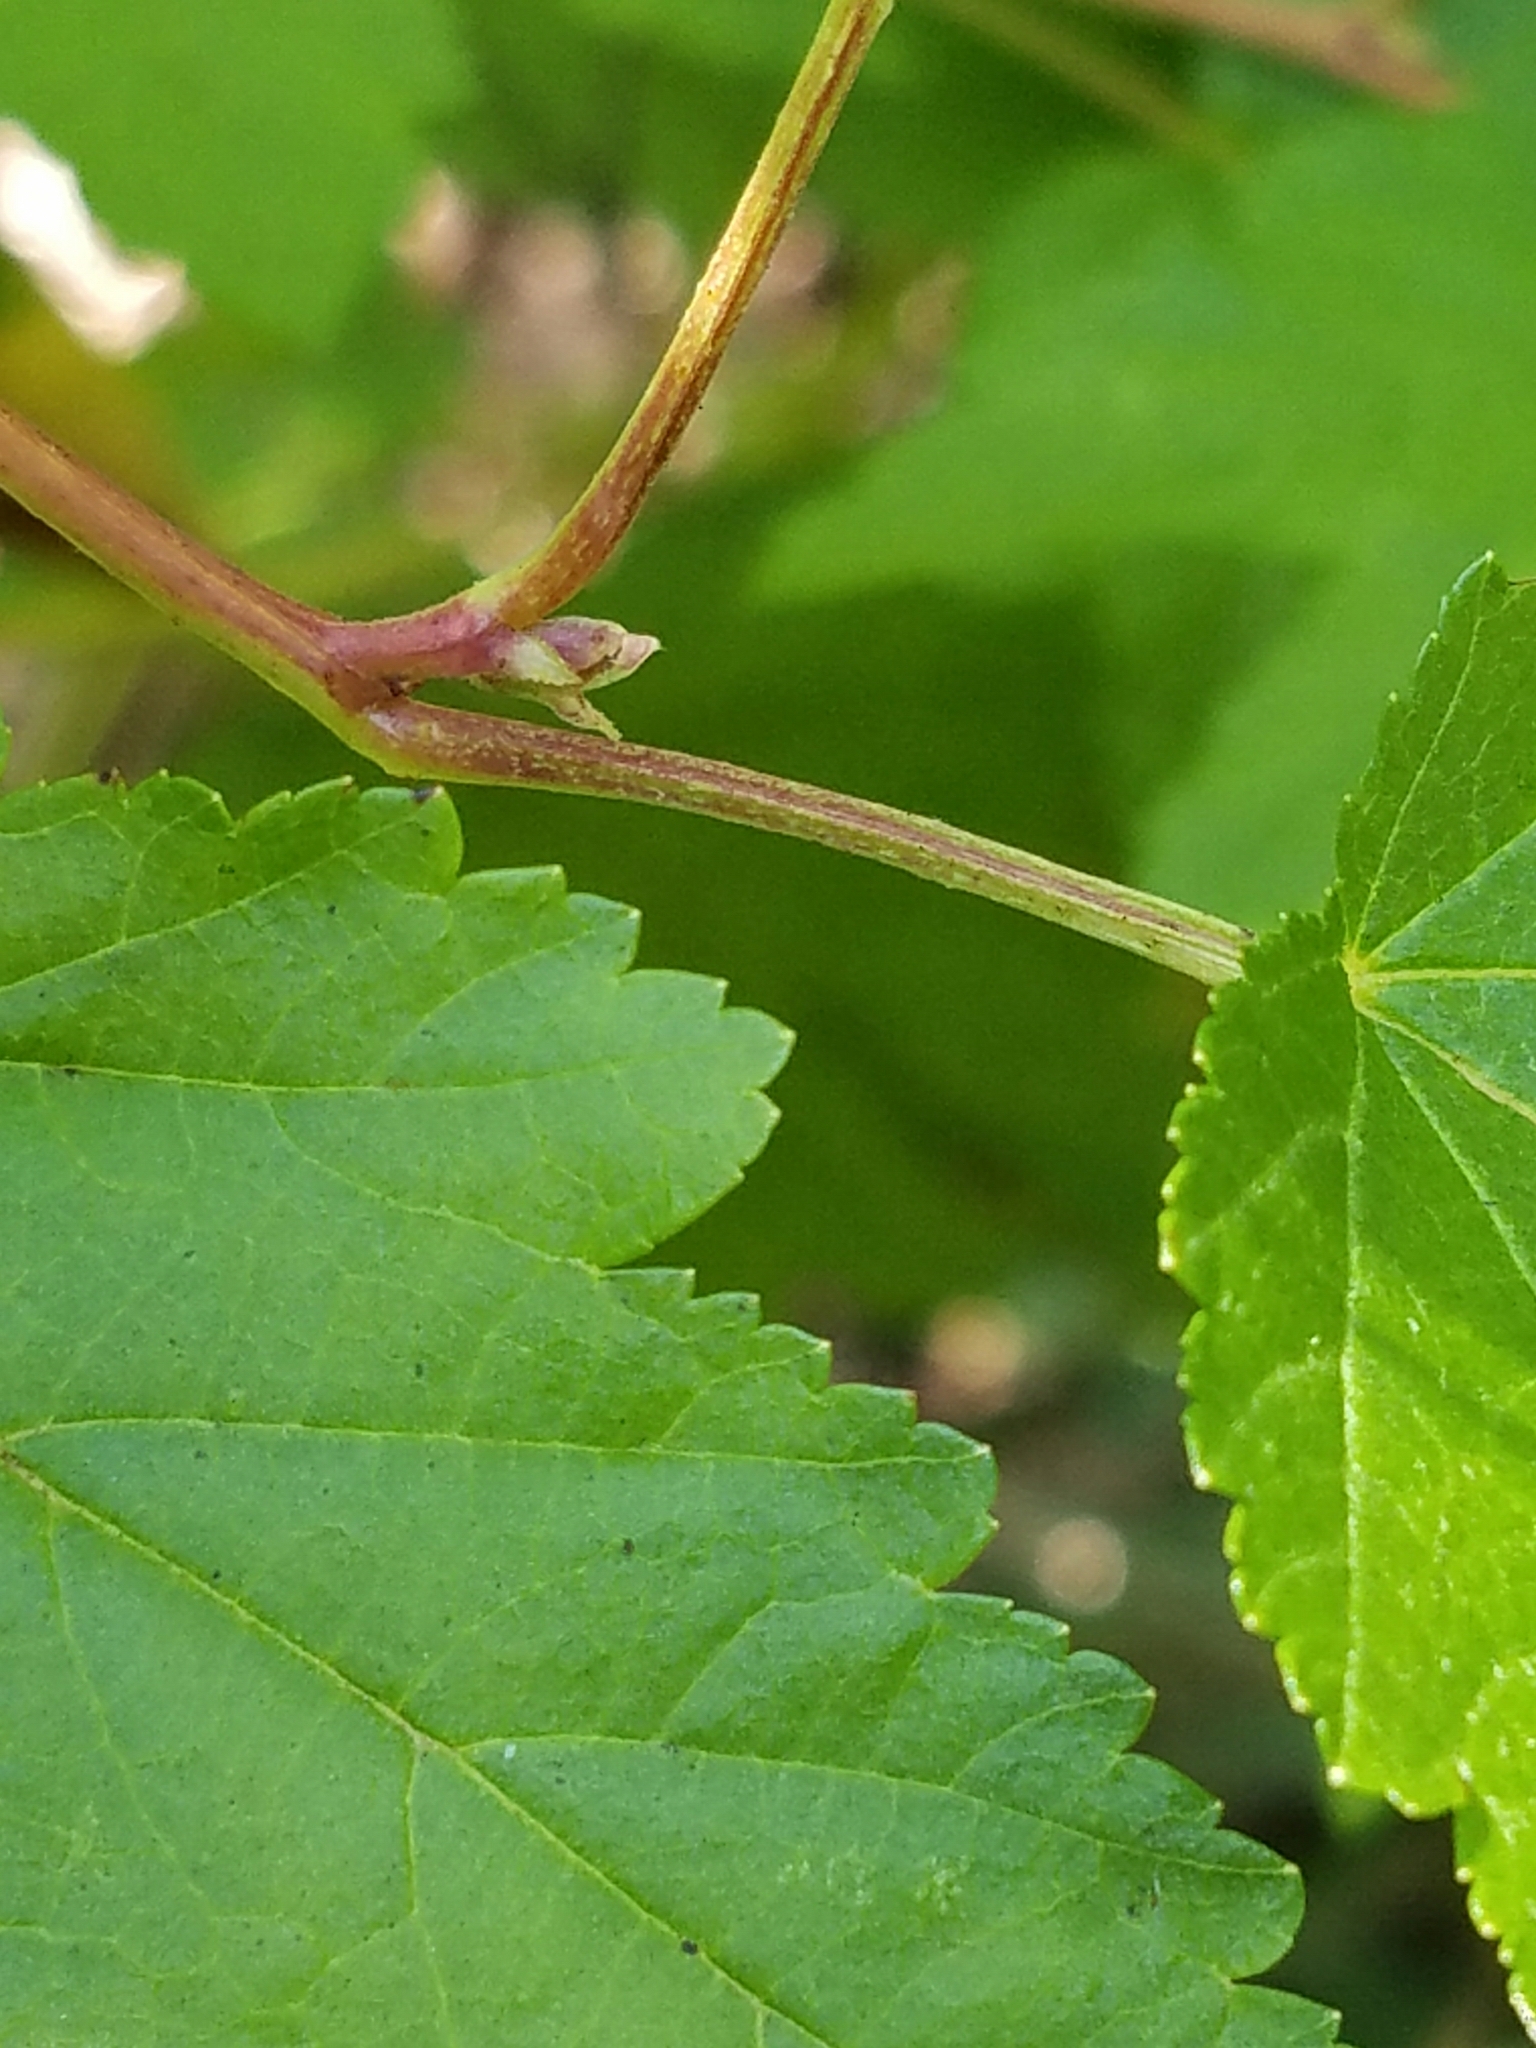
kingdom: Plantae
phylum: Tracheophyta
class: Magnoliopsida
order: Rosales
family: Rosaceae
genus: Physocarpus
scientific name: Physocarpus opulifolius
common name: Ninebark
